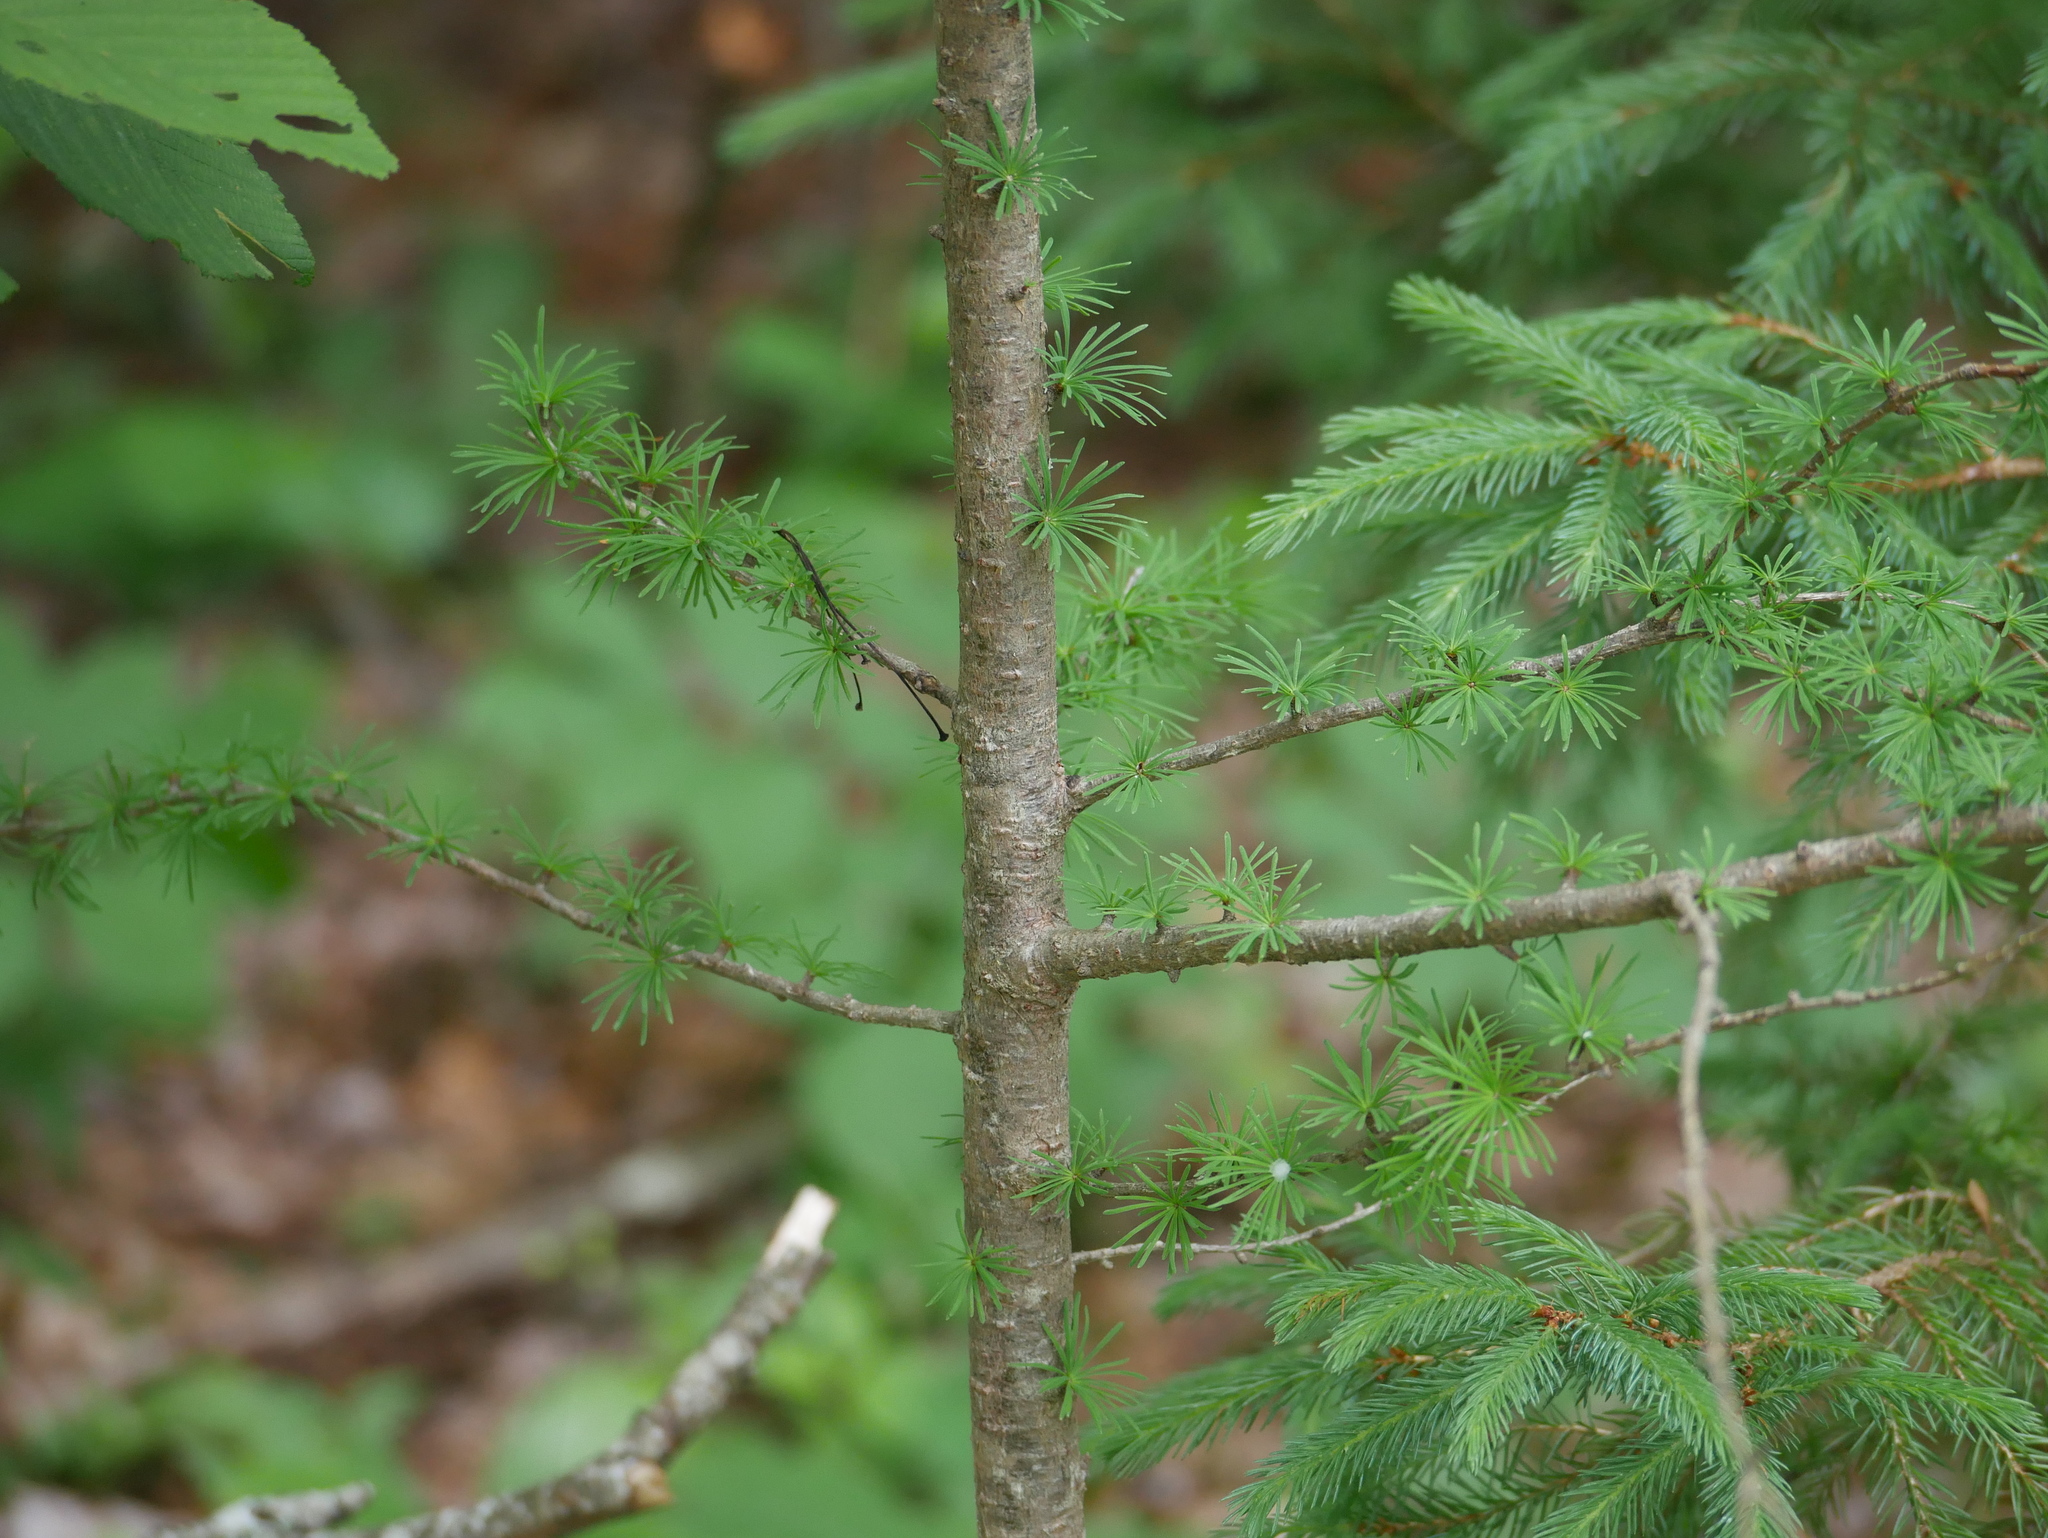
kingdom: Plantae
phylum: Tracheophyta
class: Pinopsida
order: Pinales
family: Pinaceae
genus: Larix
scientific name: Larix laricina
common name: American larch
